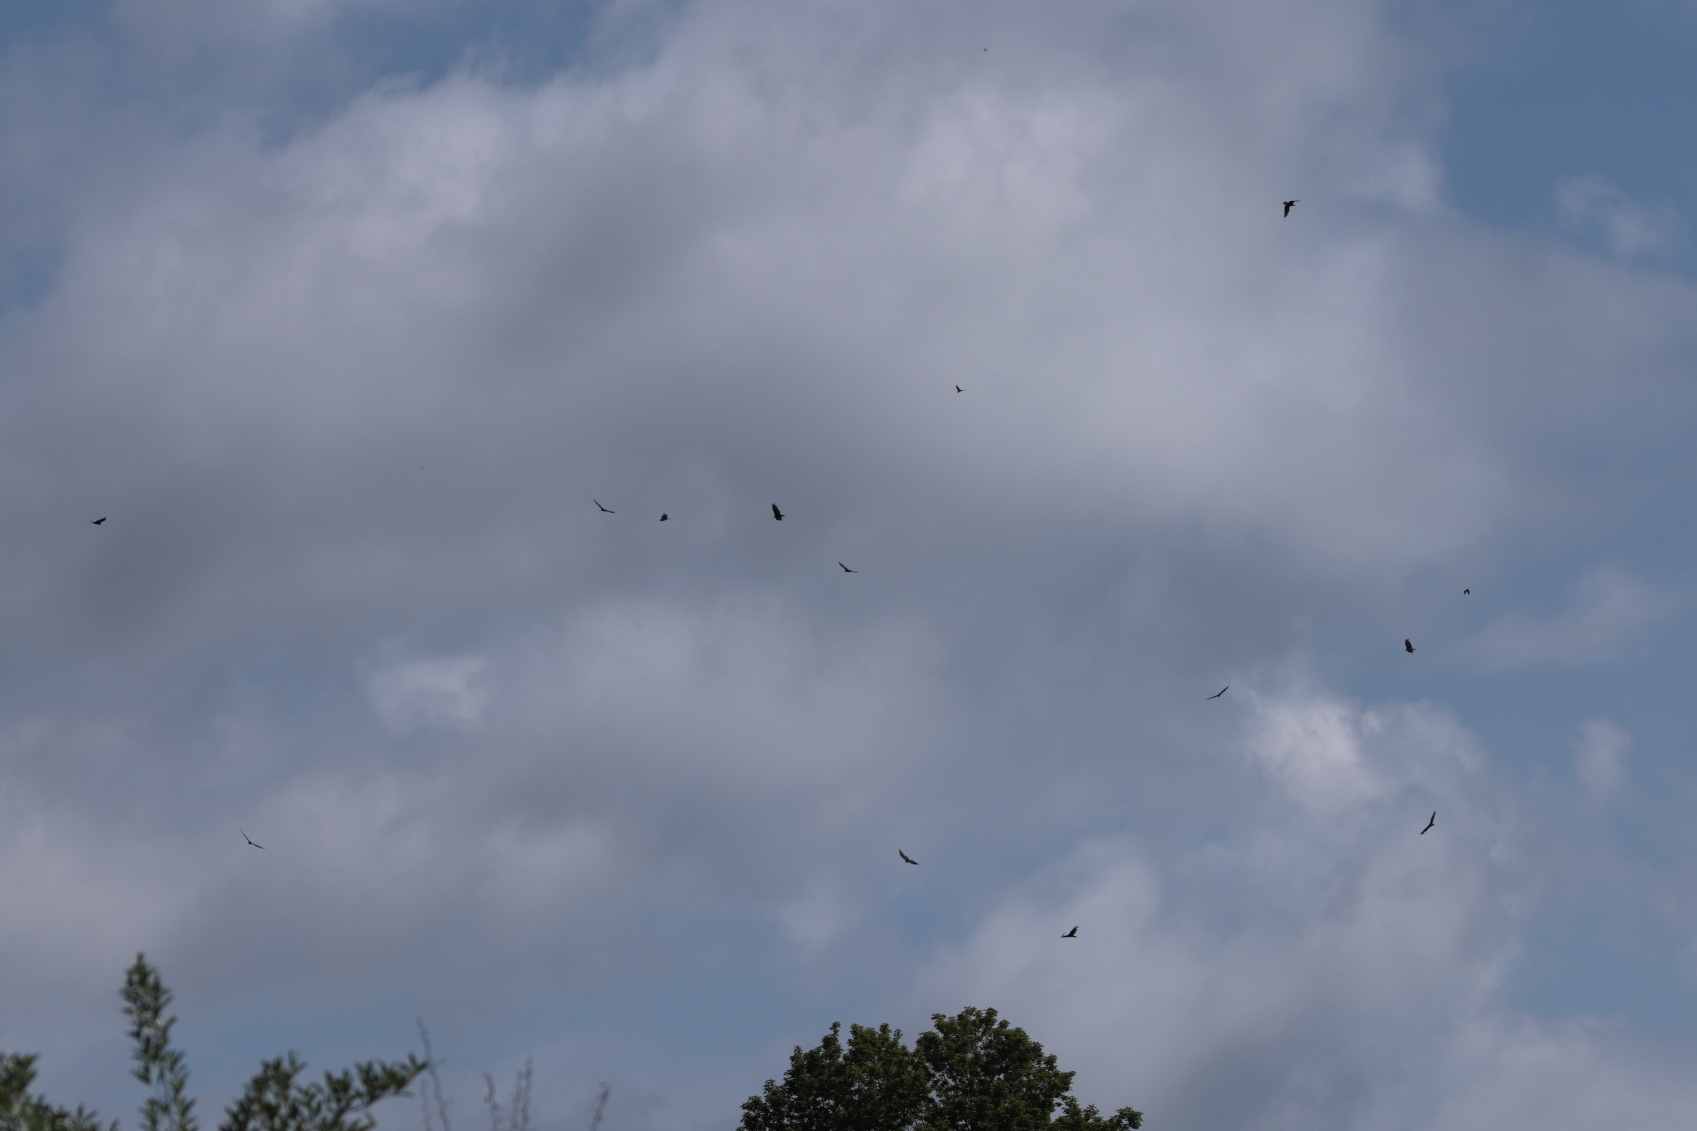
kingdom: Animalia
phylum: Chordata
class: Aves
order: Accipitriformes
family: Cathartidae
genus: Cathartes
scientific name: Cathartes aura
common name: Turkey vulture
